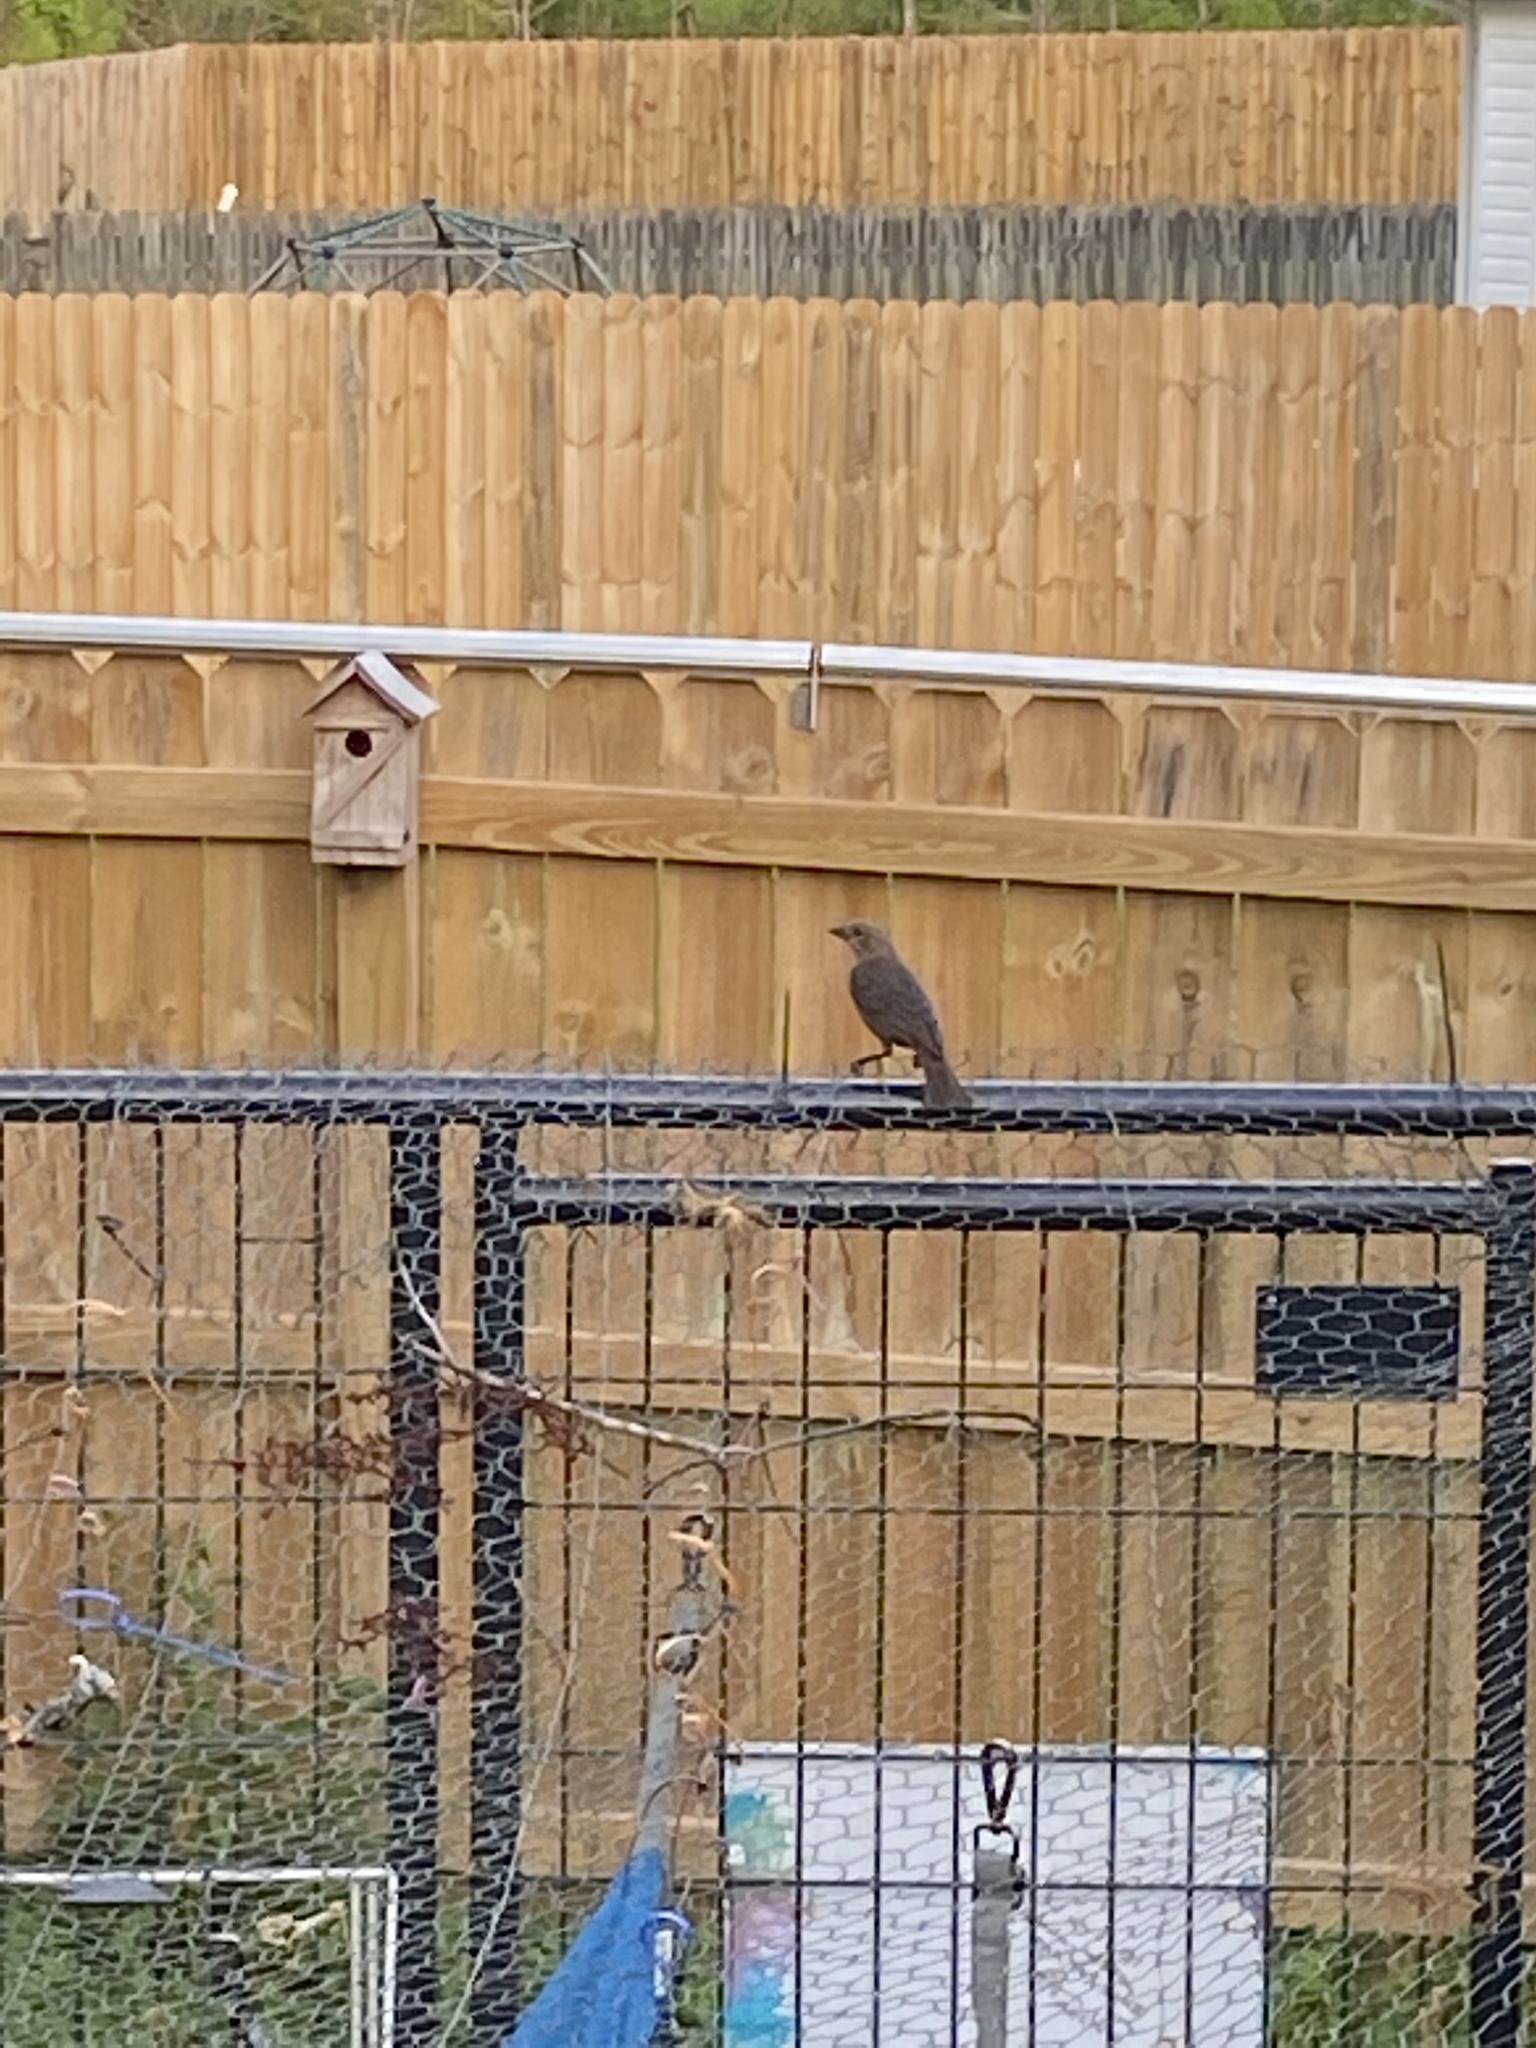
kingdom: Animalia
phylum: Chordata
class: Aves
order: Passeriformes
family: Icteridae
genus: Molothrus
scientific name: Molothrus ater
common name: Brown-headed cowbird
